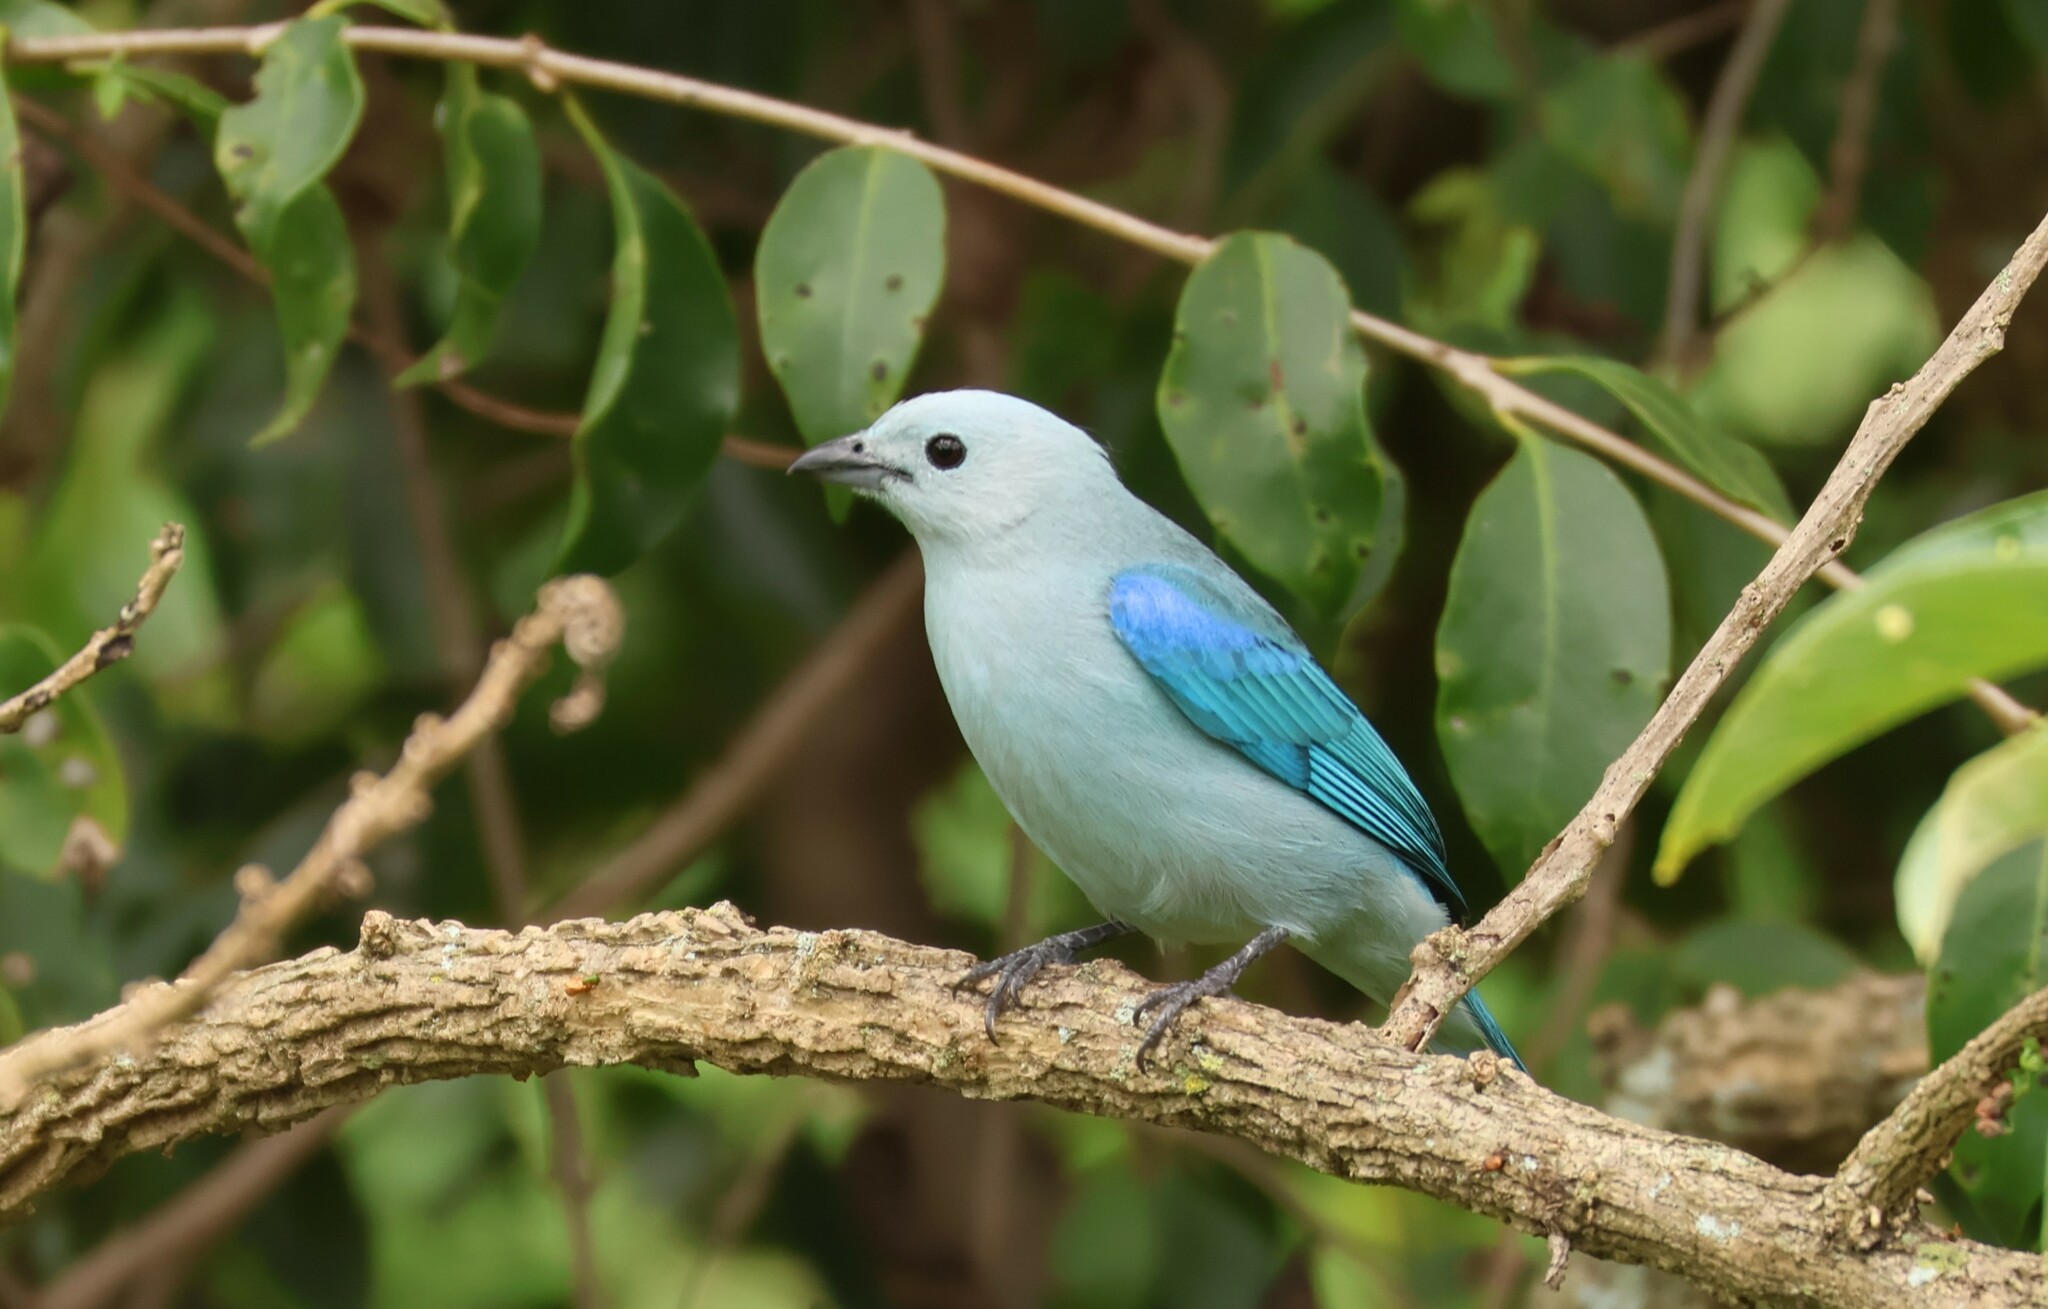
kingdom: Animalia
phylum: Chordata
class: Aves
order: Passeriformes
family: Thraupidae
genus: Thraupis
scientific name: Thraupis episcopus
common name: Blue-grey tanager
